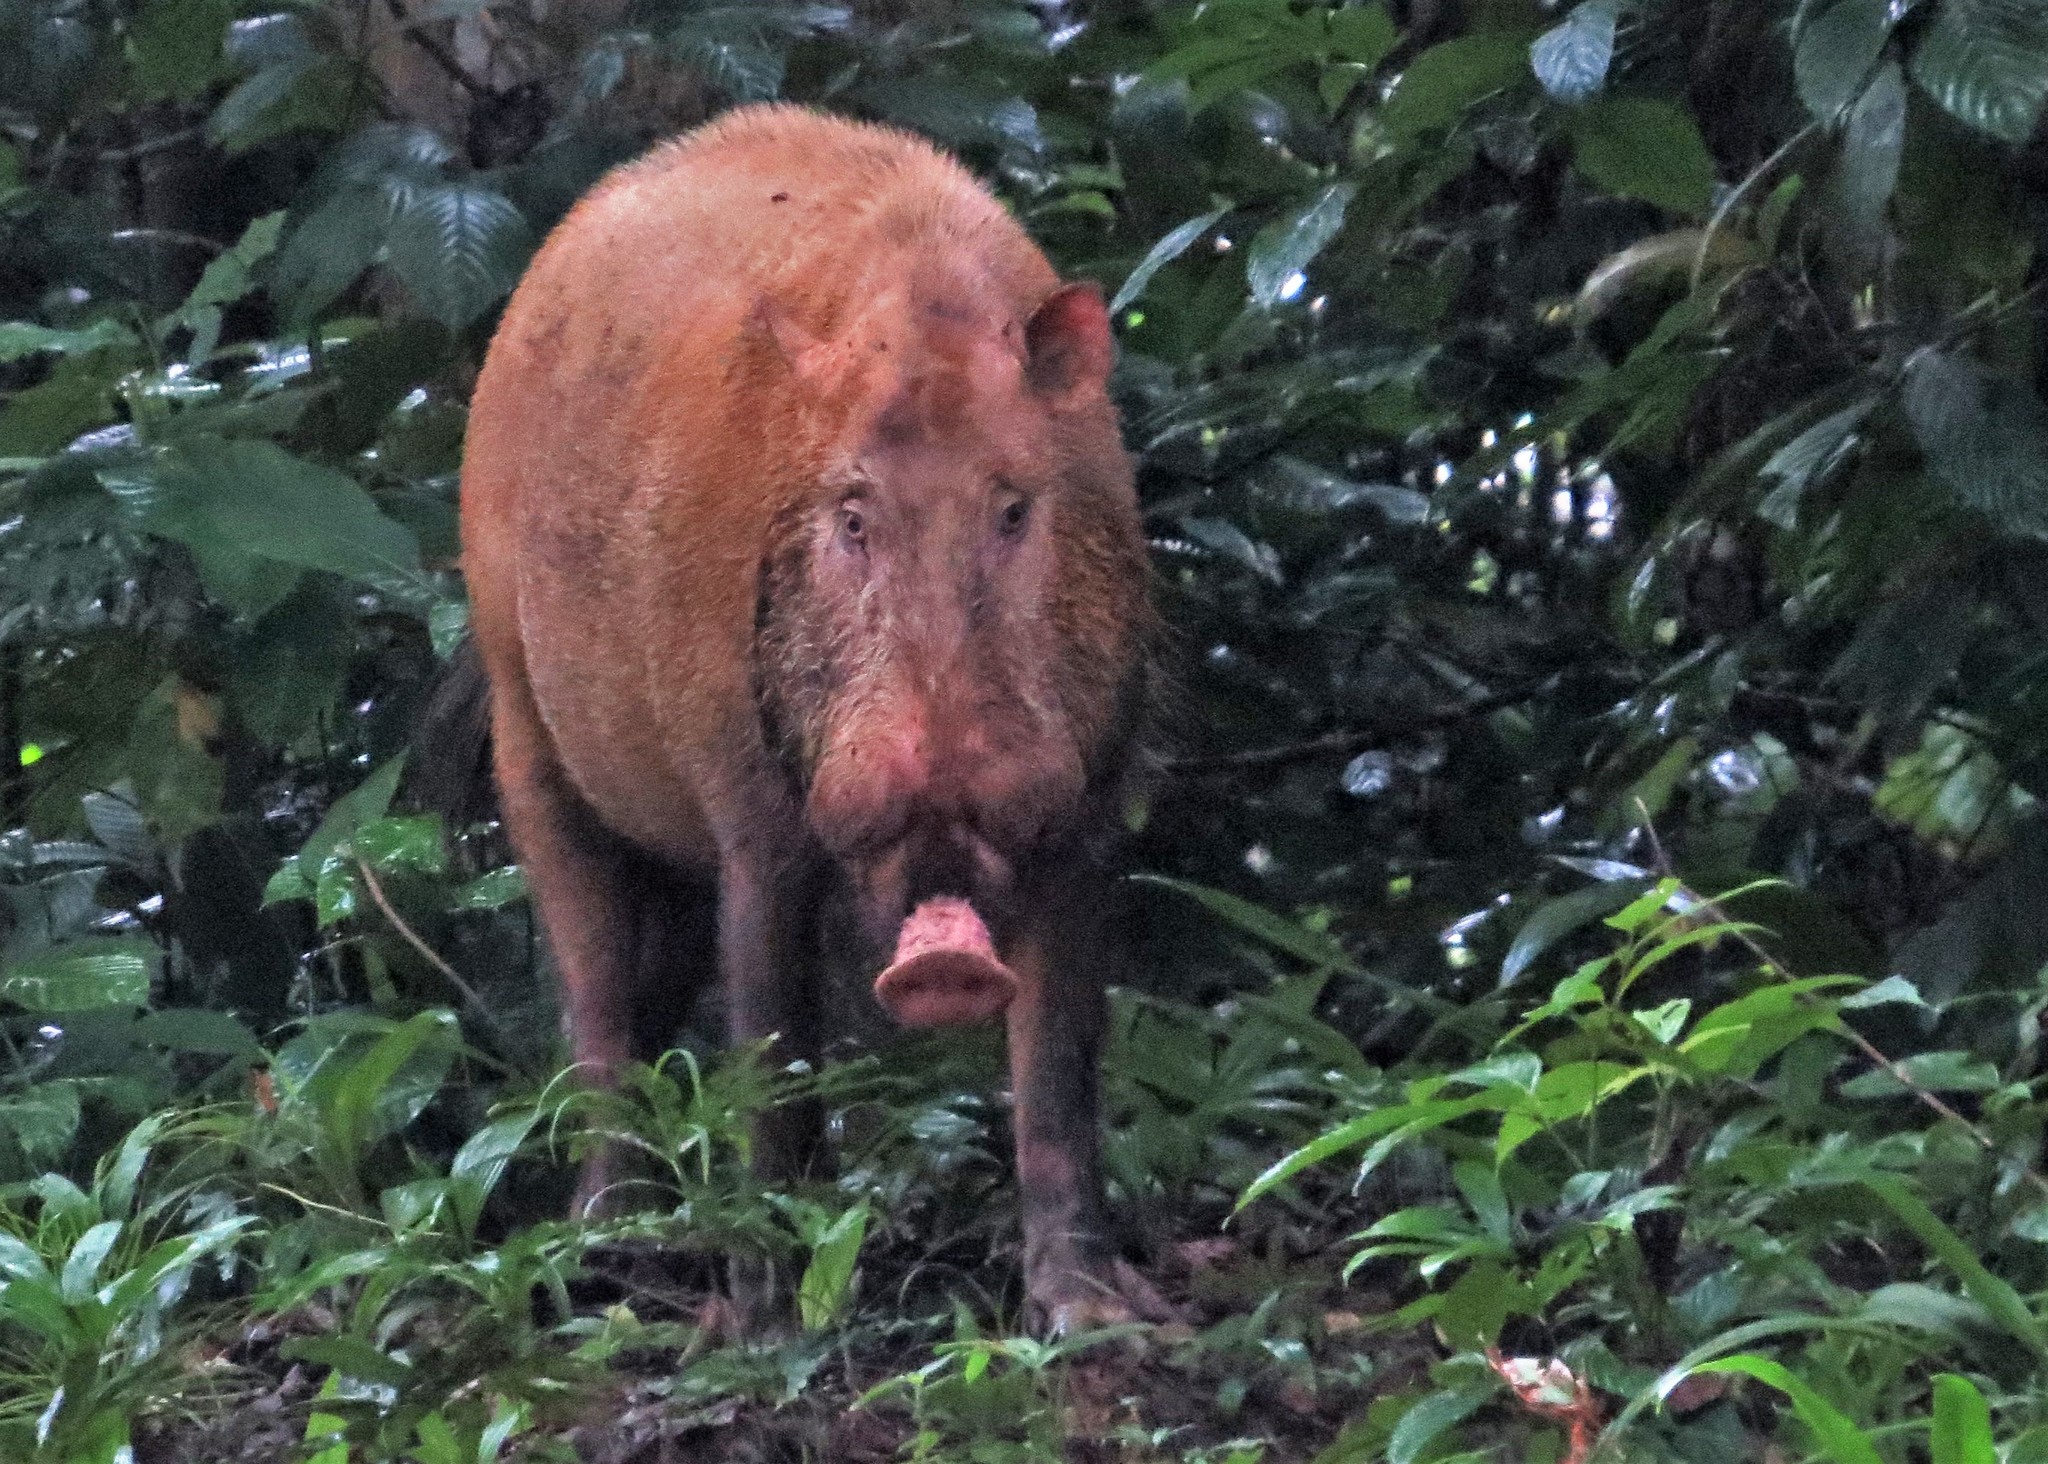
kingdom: Animalia
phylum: Chordata
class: Mammalia
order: Artiodactyla
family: Suidae
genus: Sus
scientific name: Sus barbatus
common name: Bearded pig
